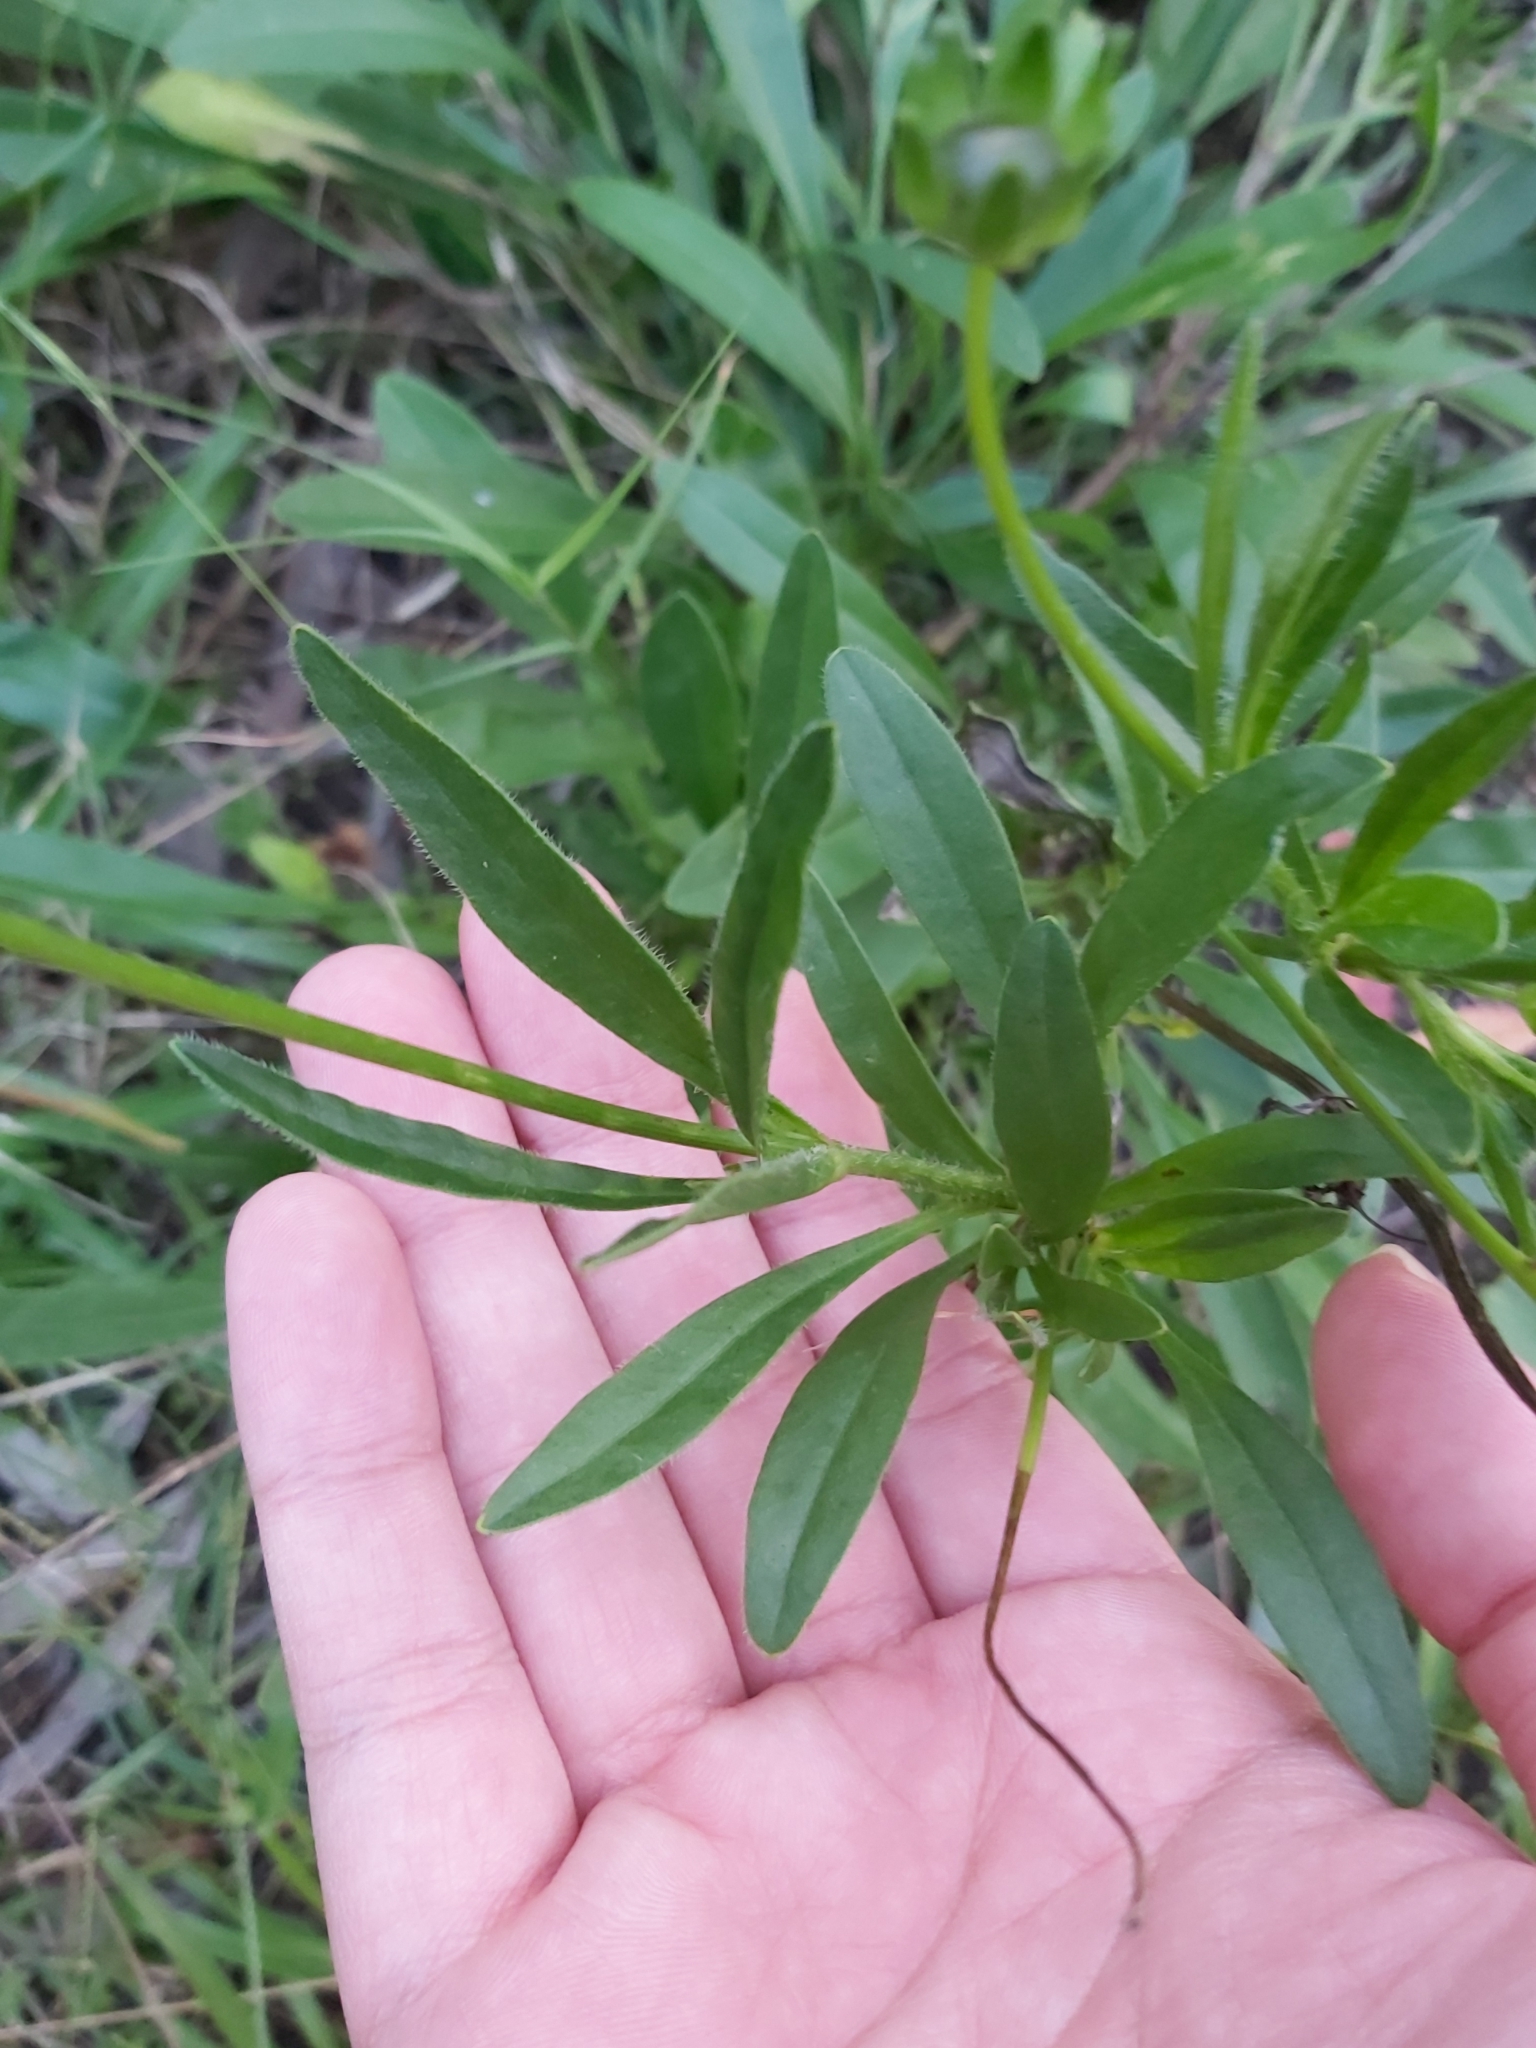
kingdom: Plantae
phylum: Tracheophyta
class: Magnoliopsida
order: Asterales
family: Asteraceae
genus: Coreopsis
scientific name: Coreopsis lanceolata
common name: Garden coreopsis
